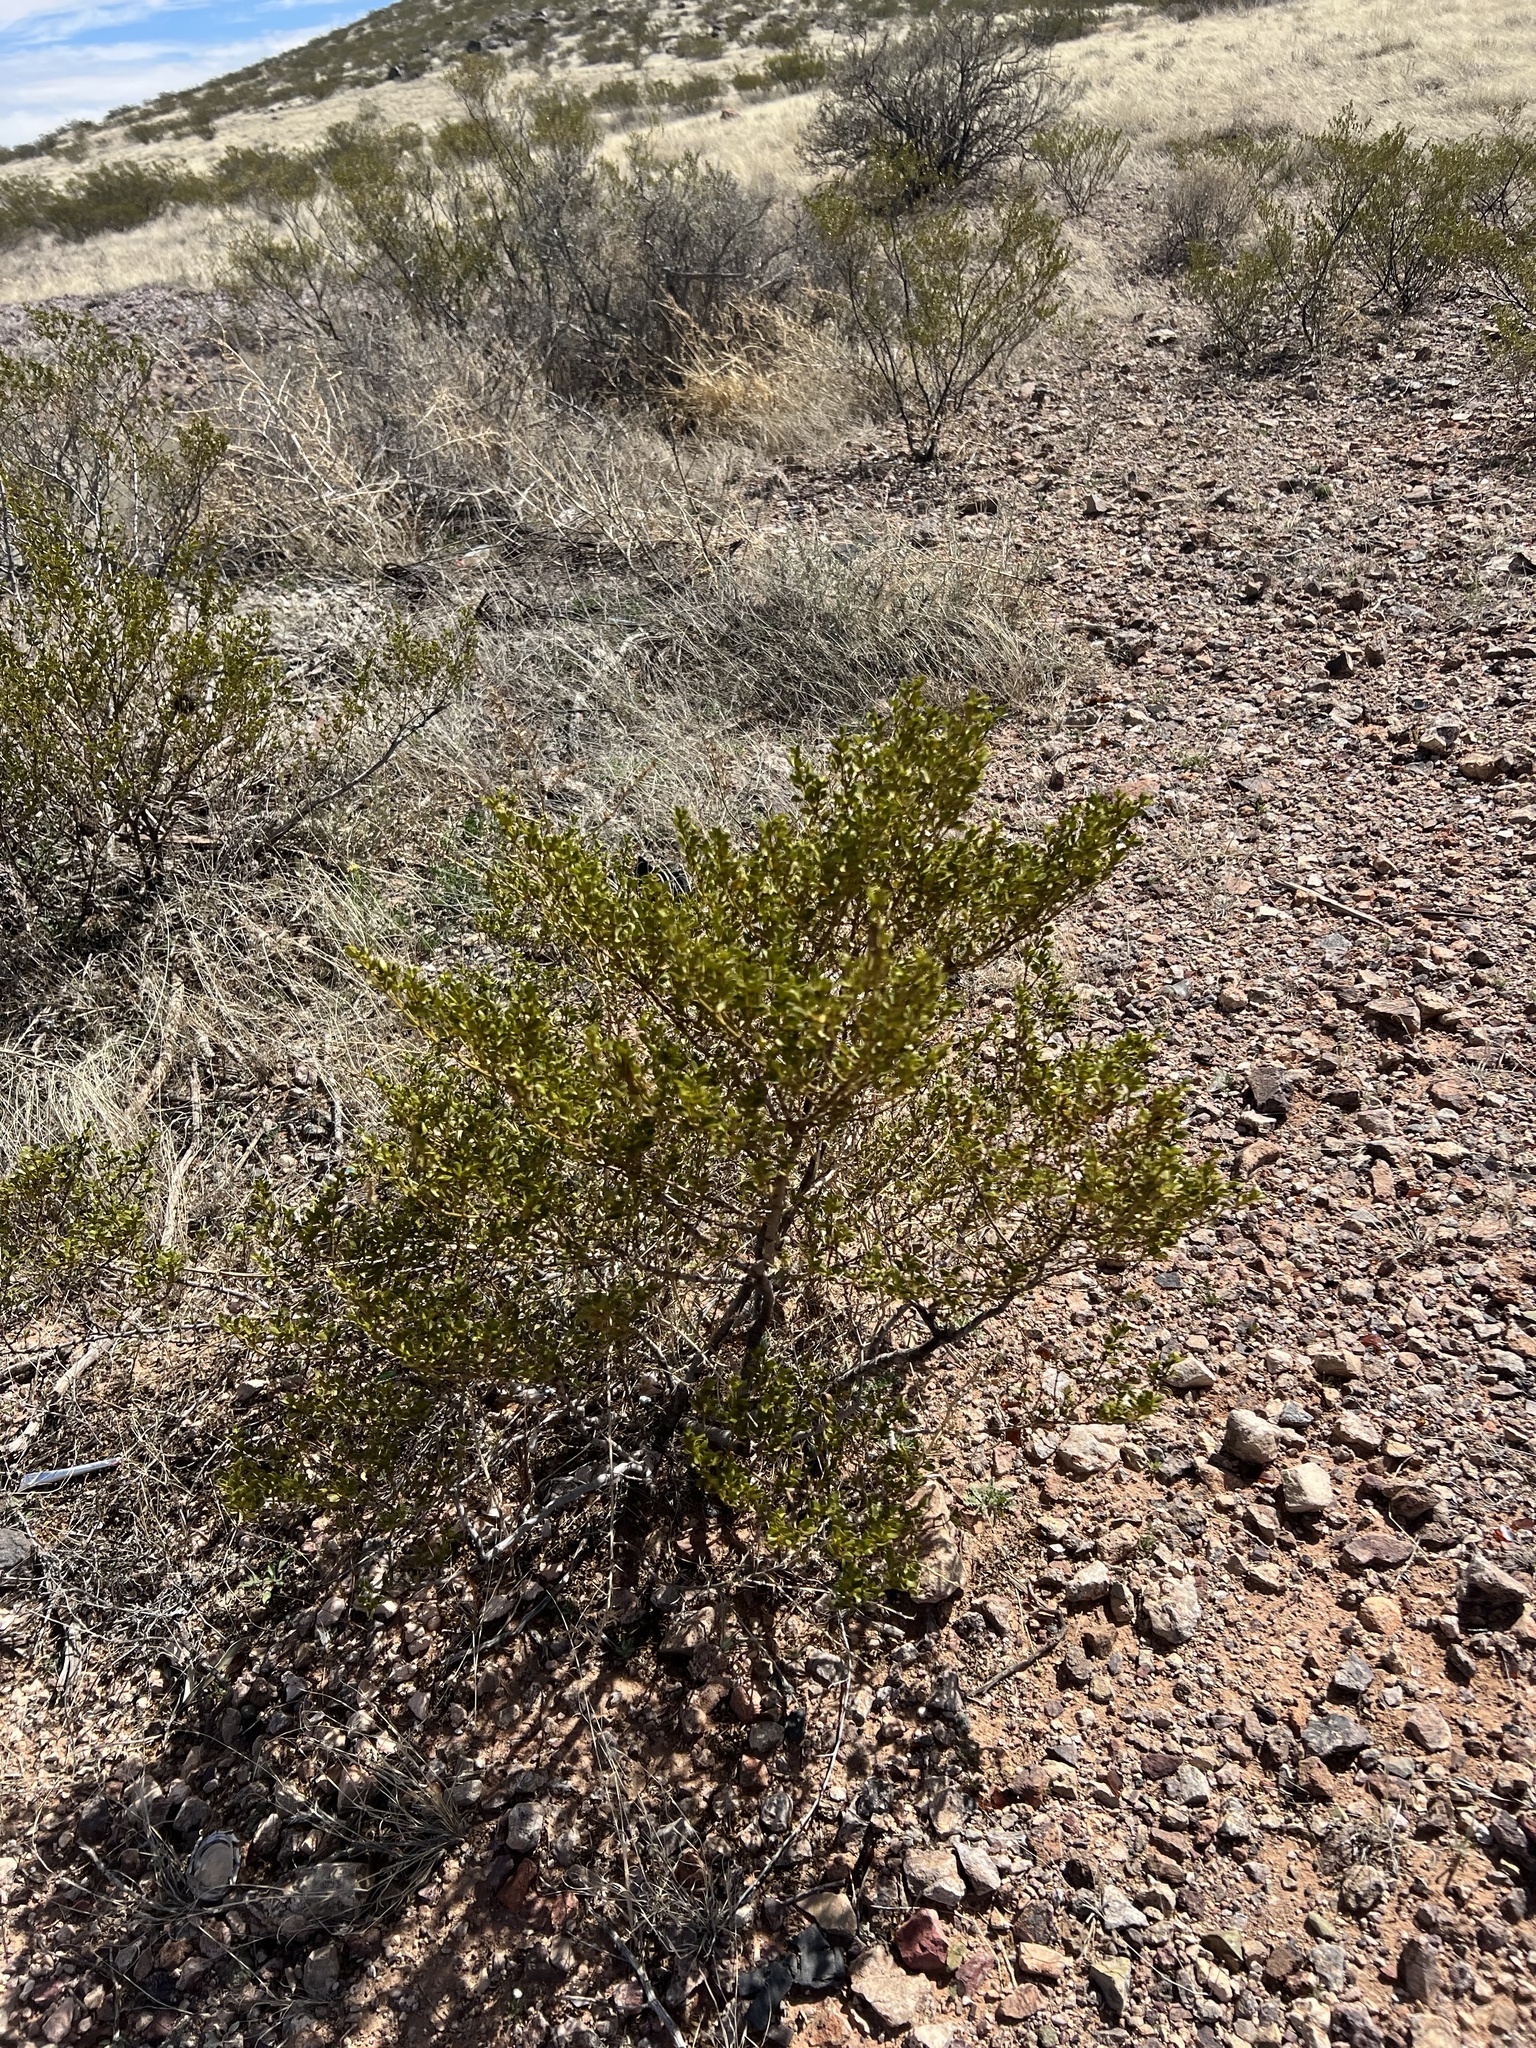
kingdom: Plantae
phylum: Tracheophyta
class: Magnoliopsida
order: Zygophyllales
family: Zygophyllaceae
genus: Larrea
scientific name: Larrea tridentata
